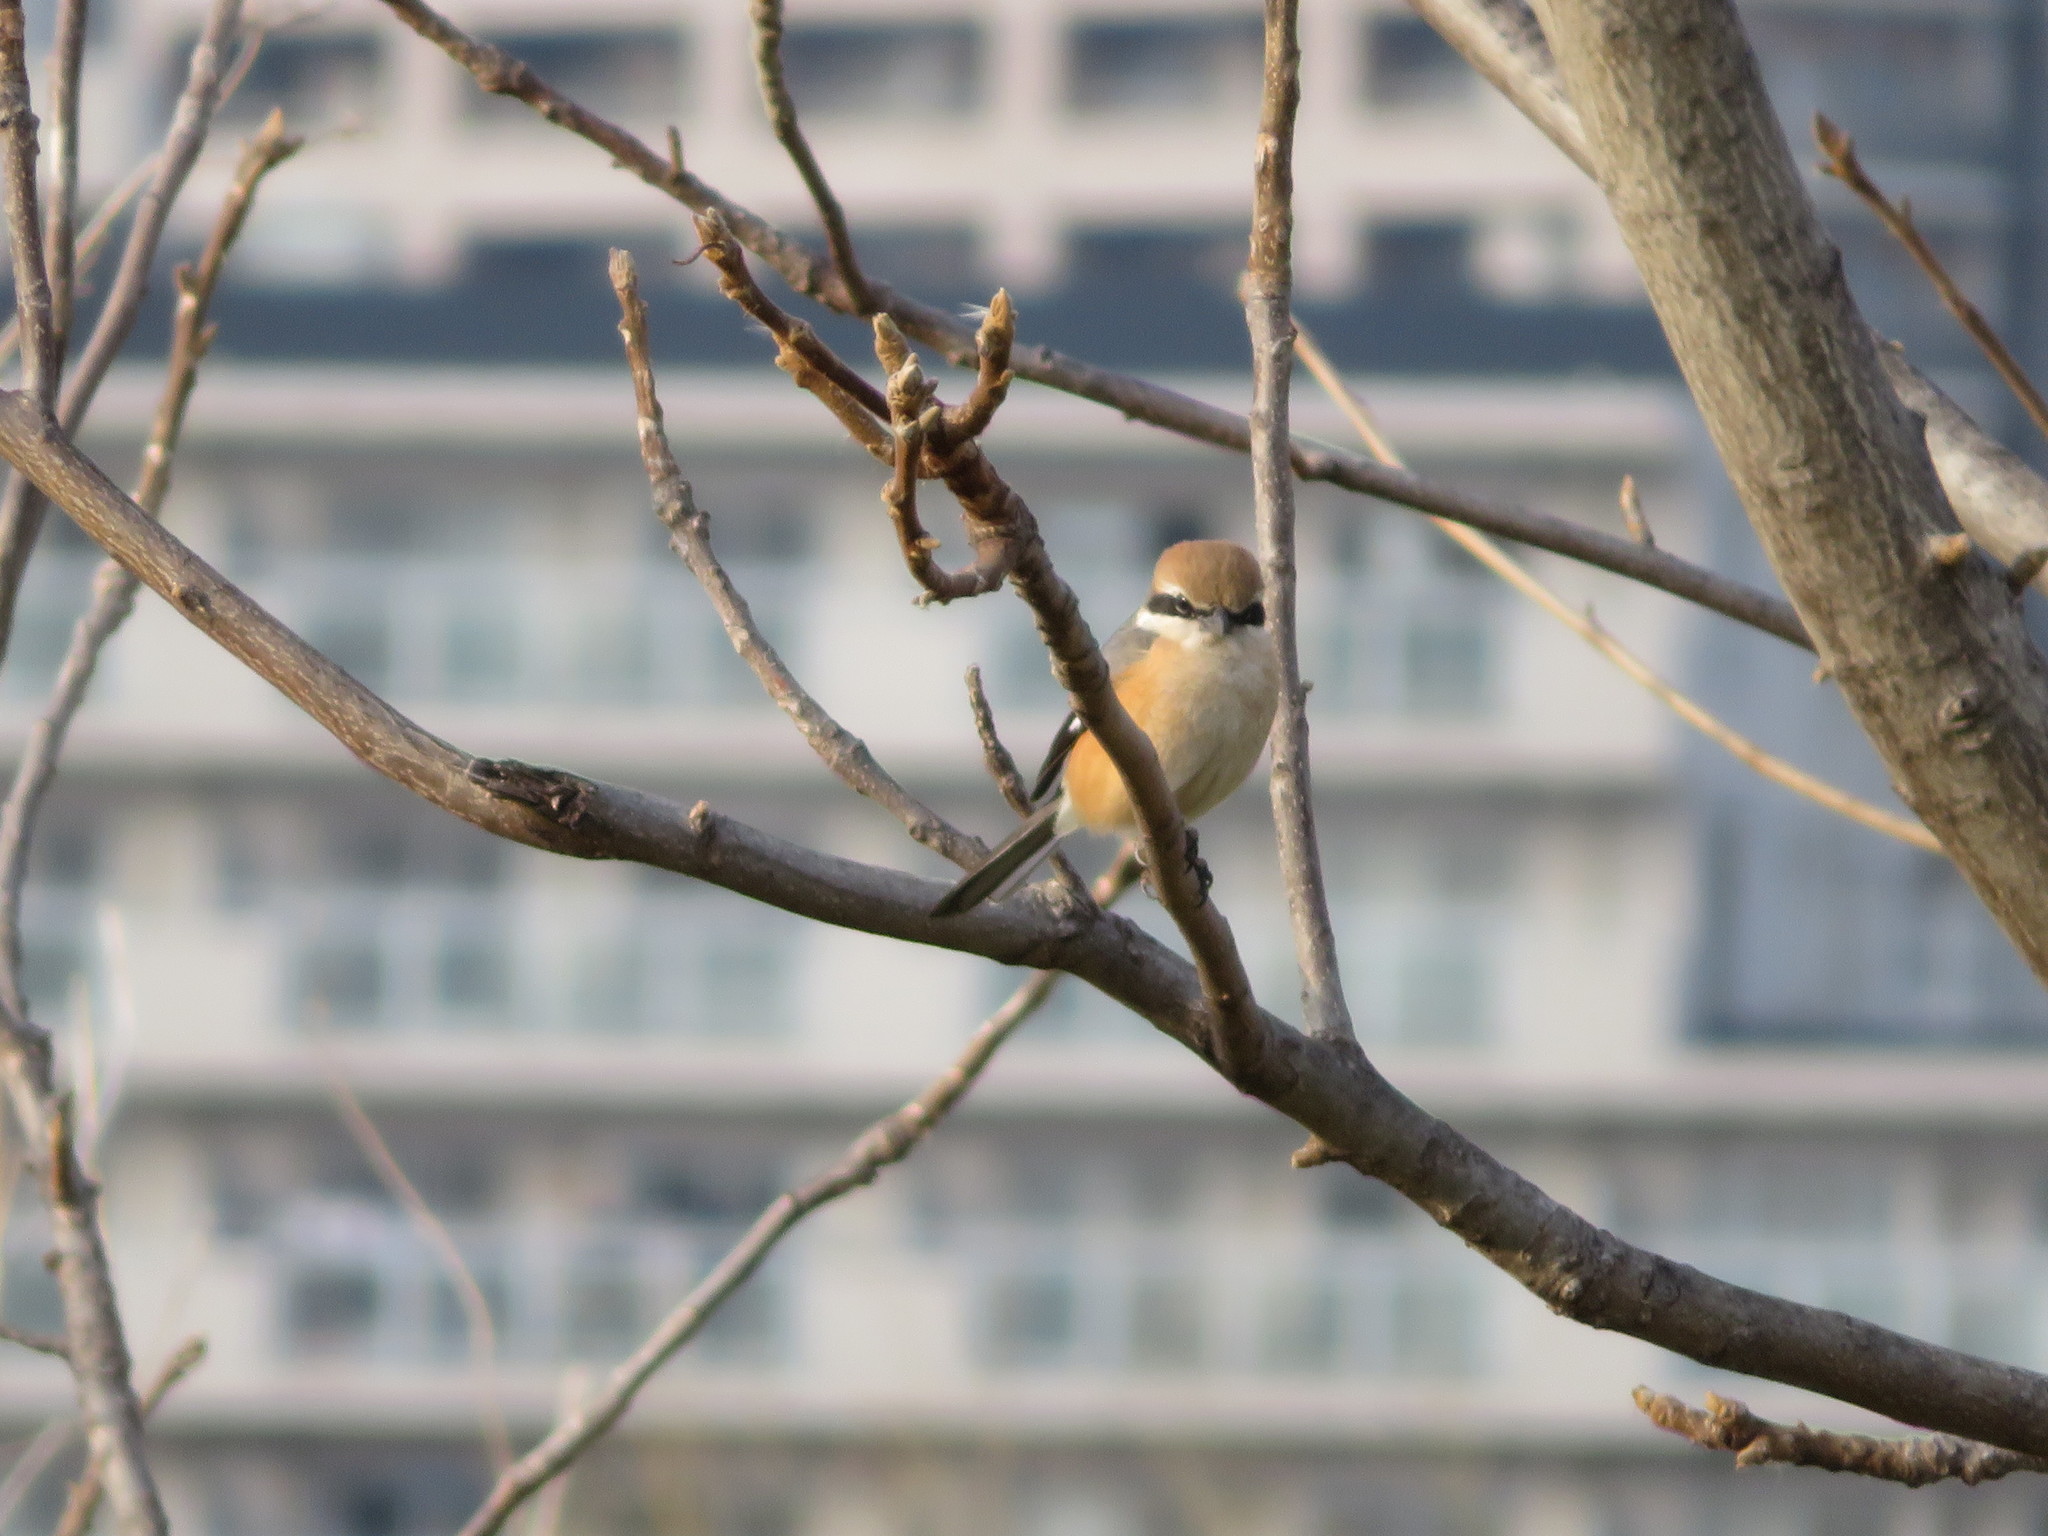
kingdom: Animalia
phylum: Chordata
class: Aves
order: Passeriformes
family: Laniidae
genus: Lanius
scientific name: Lanius bucephalus
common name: Bull-headed shrike
